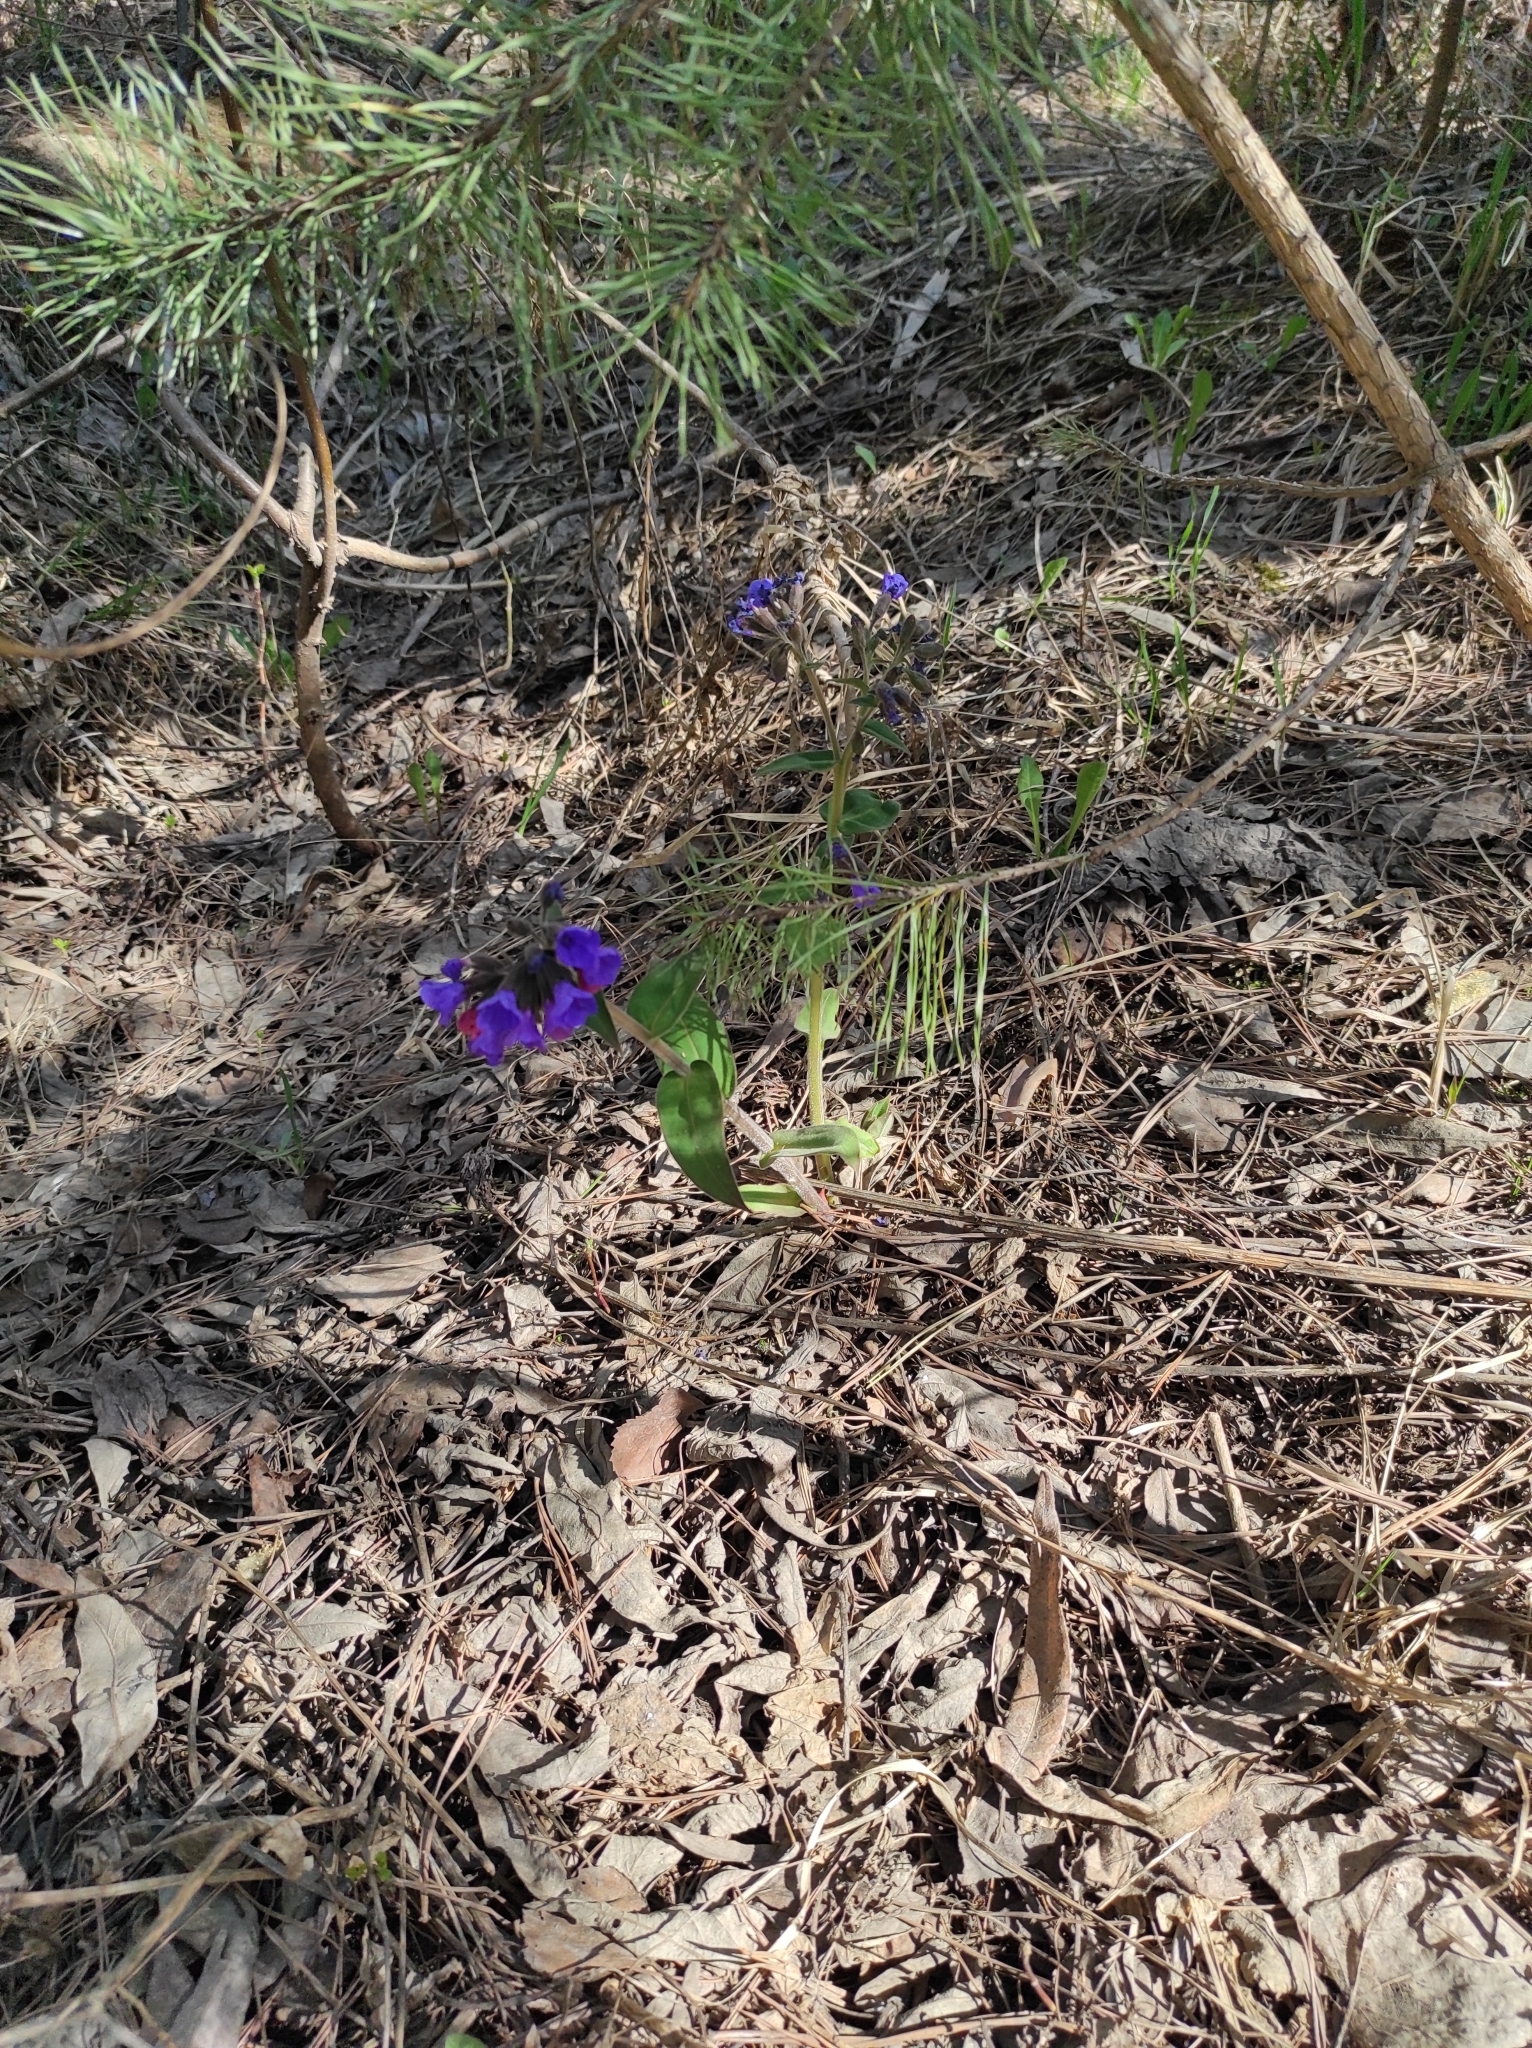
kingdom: Plantae
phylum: Tracheophyta
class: Magnoliopsida
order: Boraginales
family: Boraginaceae
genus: Pulmonaria
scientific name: Pulmonaria mollis
